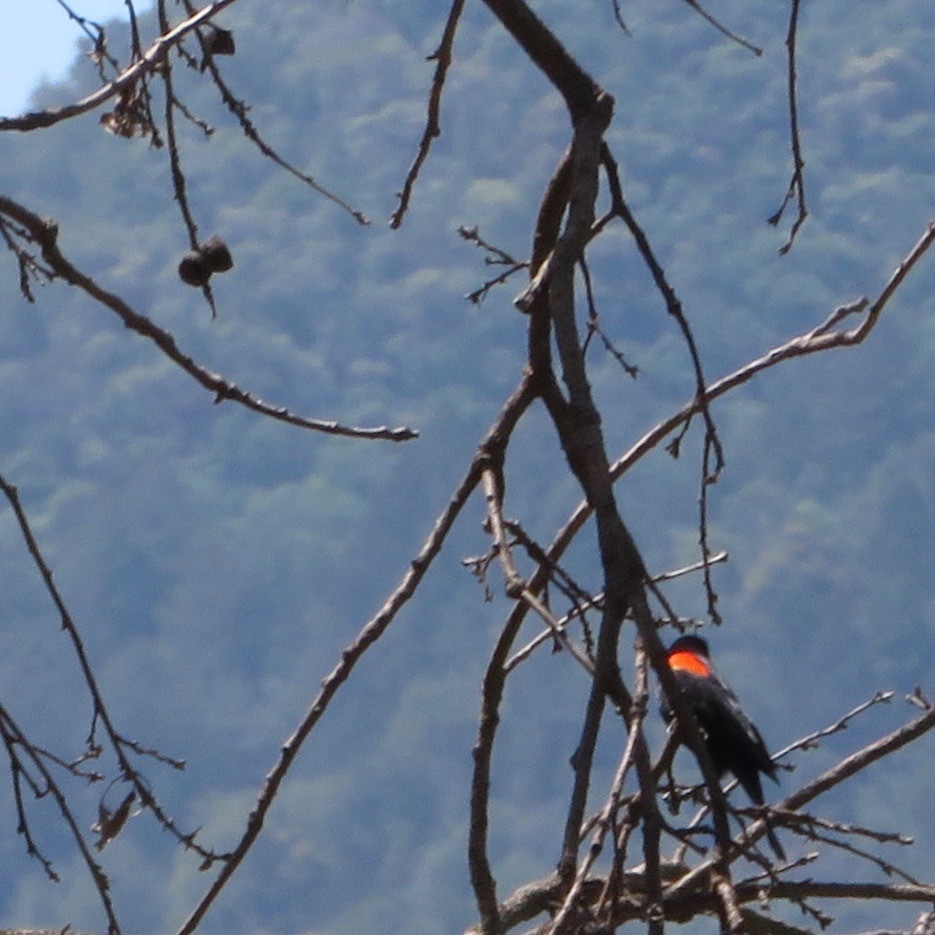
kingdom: Animalia
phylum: Chordata
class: Aves
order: Passeriformes
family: Icteridae
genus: Agelaius
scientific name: Agelaius phoeniceus
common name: Red-winged blackbird
